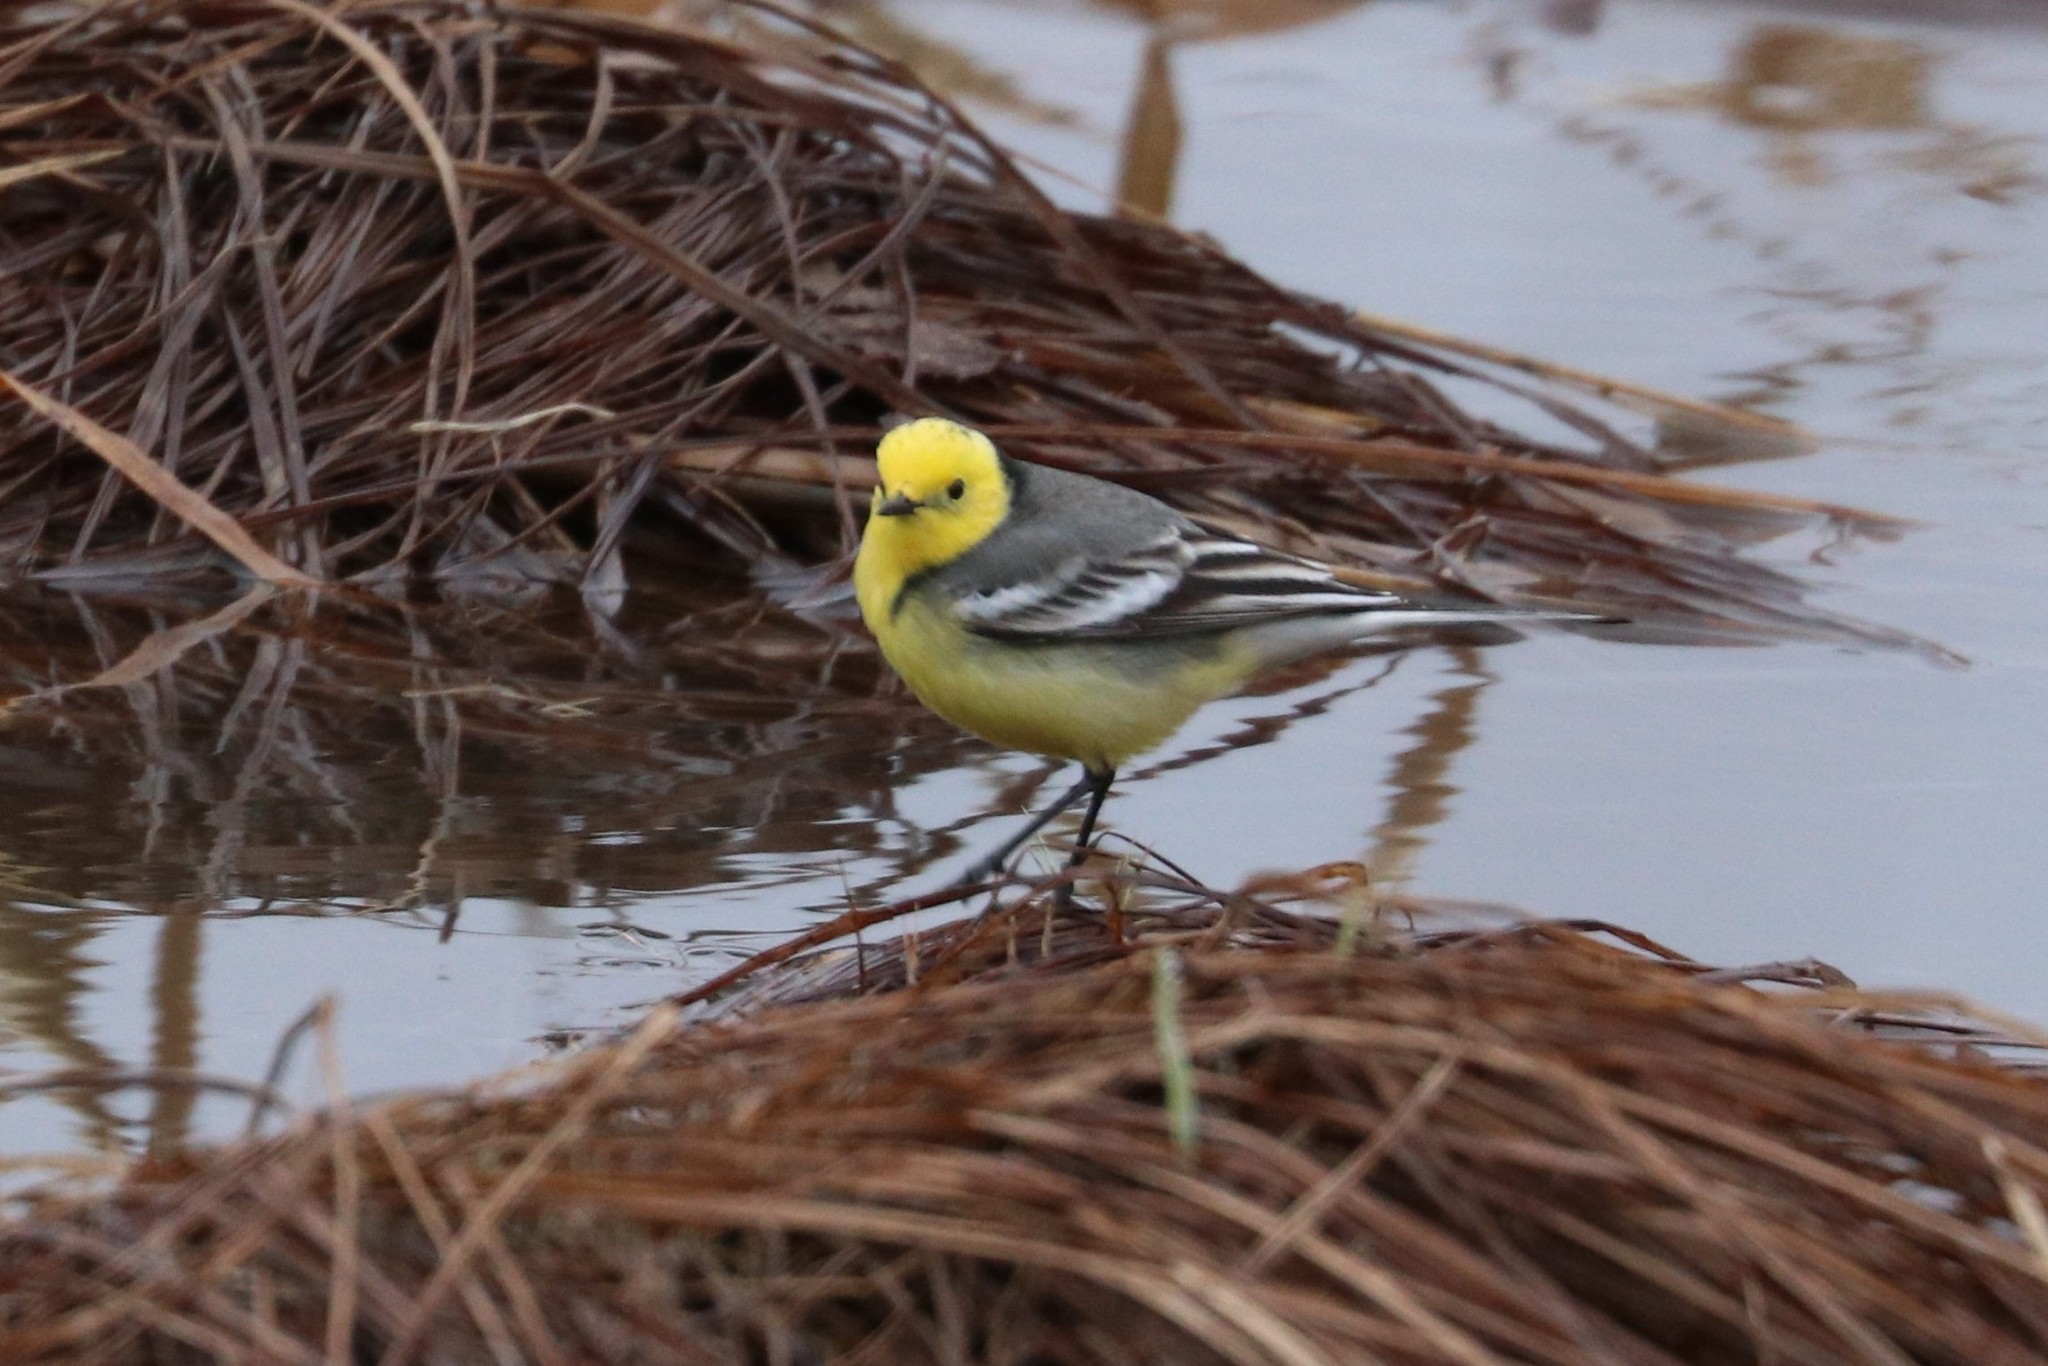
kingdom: Animalia
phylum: Chordata
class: Aves
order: Passeriformes
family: Motacillidae
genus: Motacilla
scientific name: Motacilla citreola
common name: Citrine wagtail
